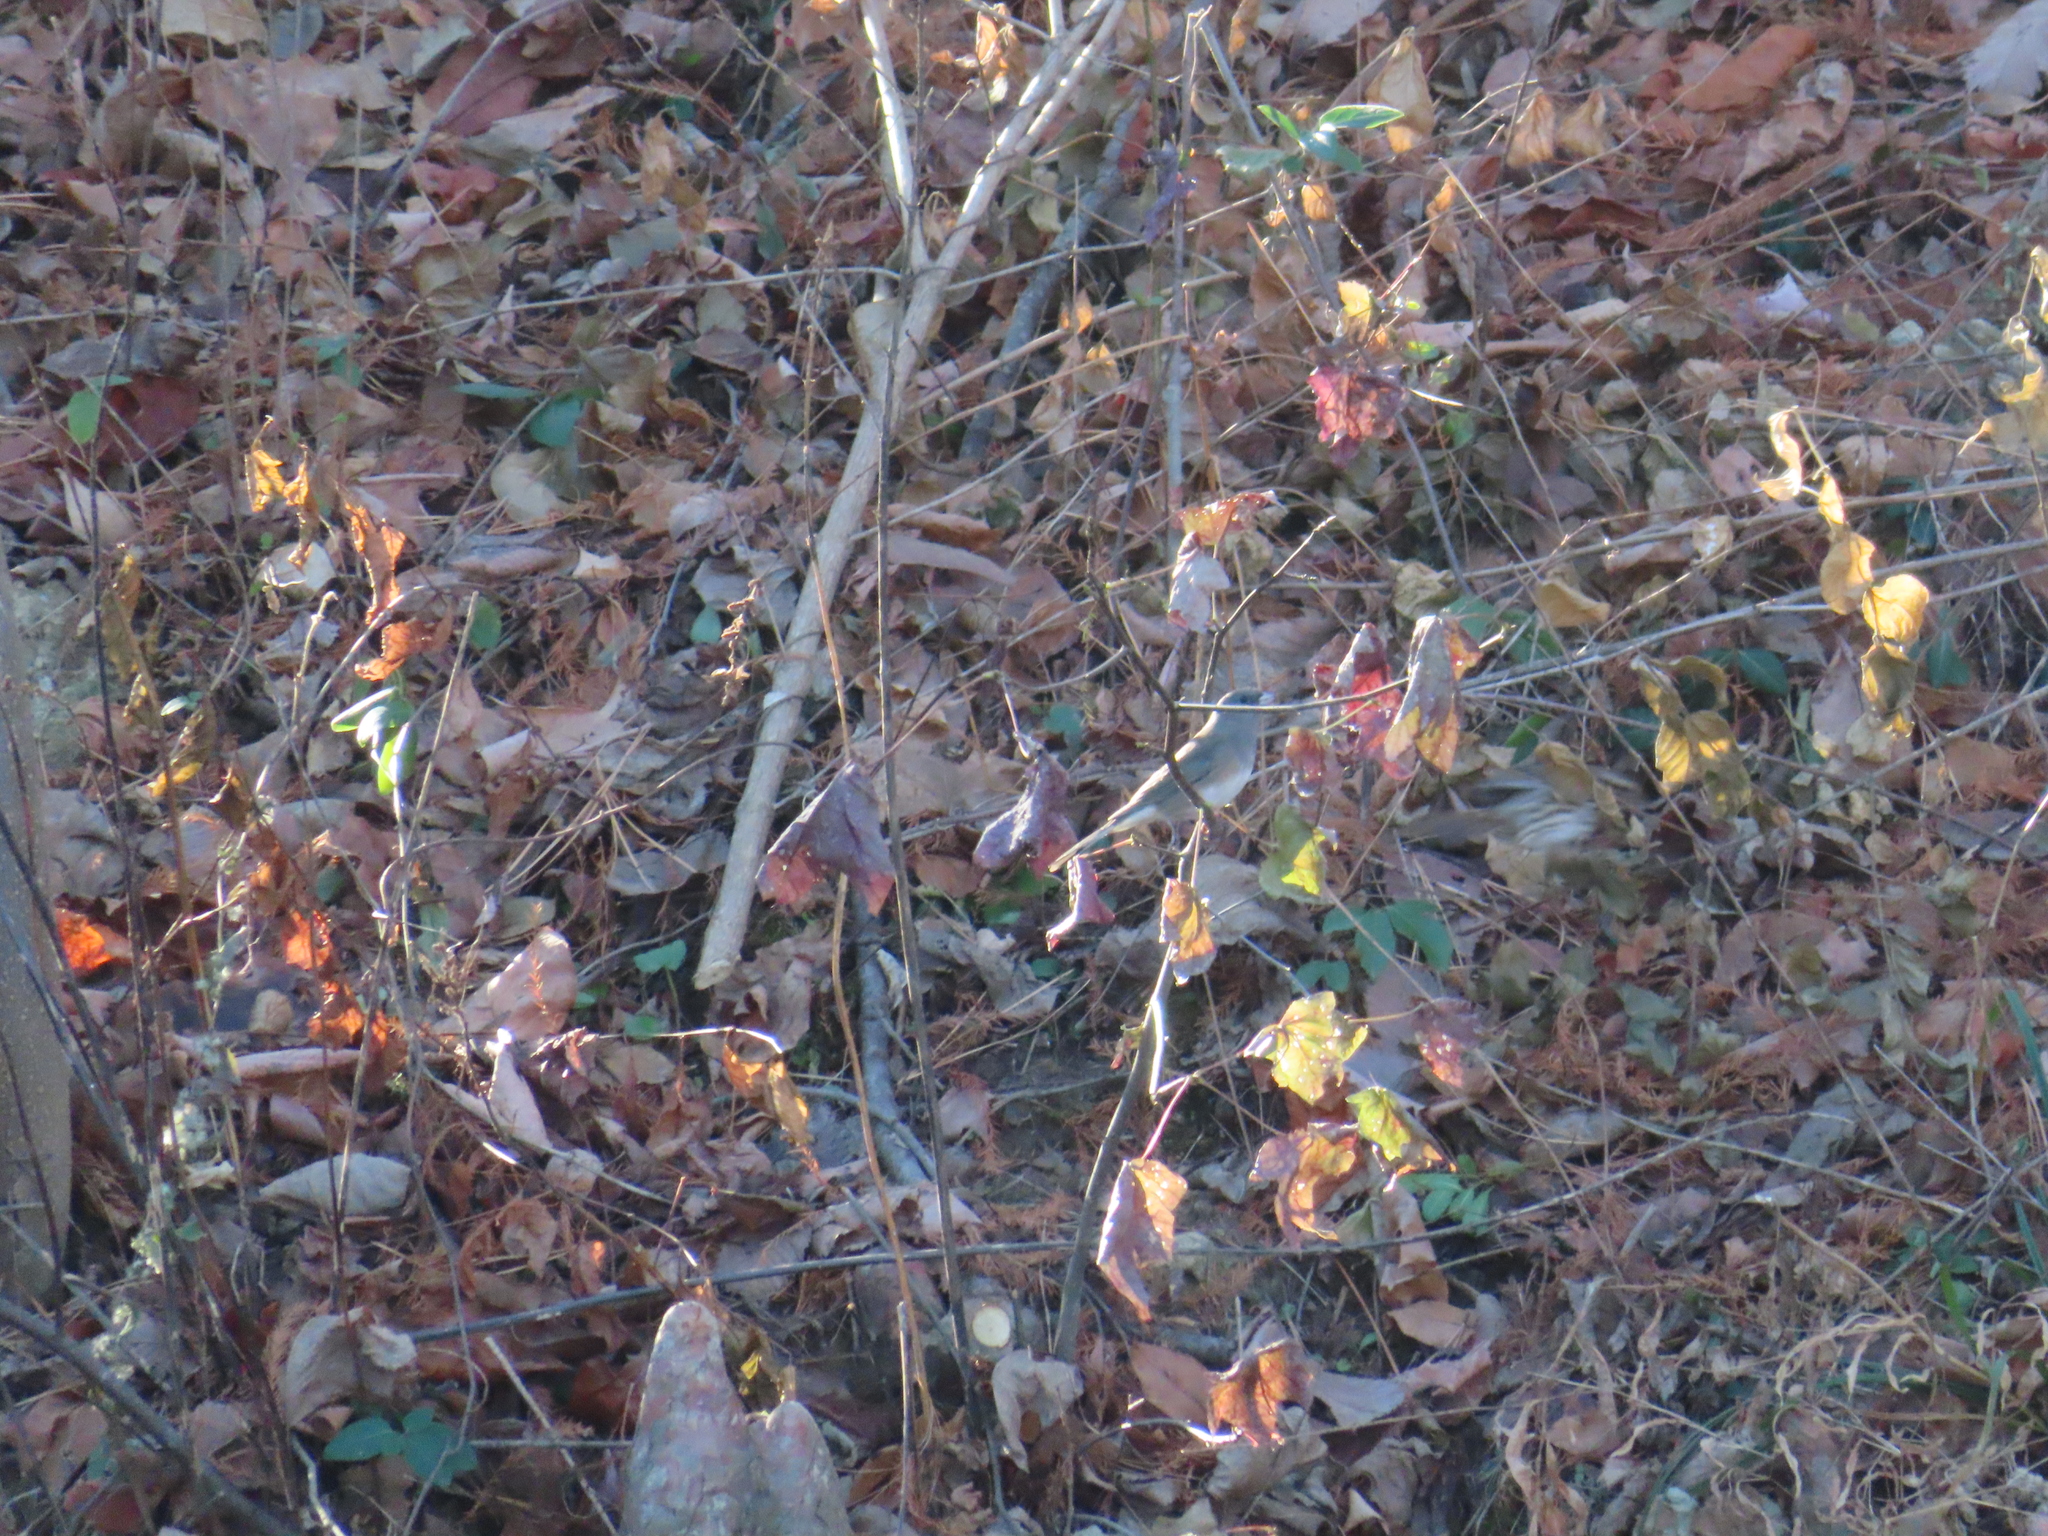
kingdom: Animalia
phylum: Chordata
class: Aves
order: Passeriformes
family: Passerellidae
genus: Junco
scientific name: Junco hyemalis
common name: Dark-eyed junco
